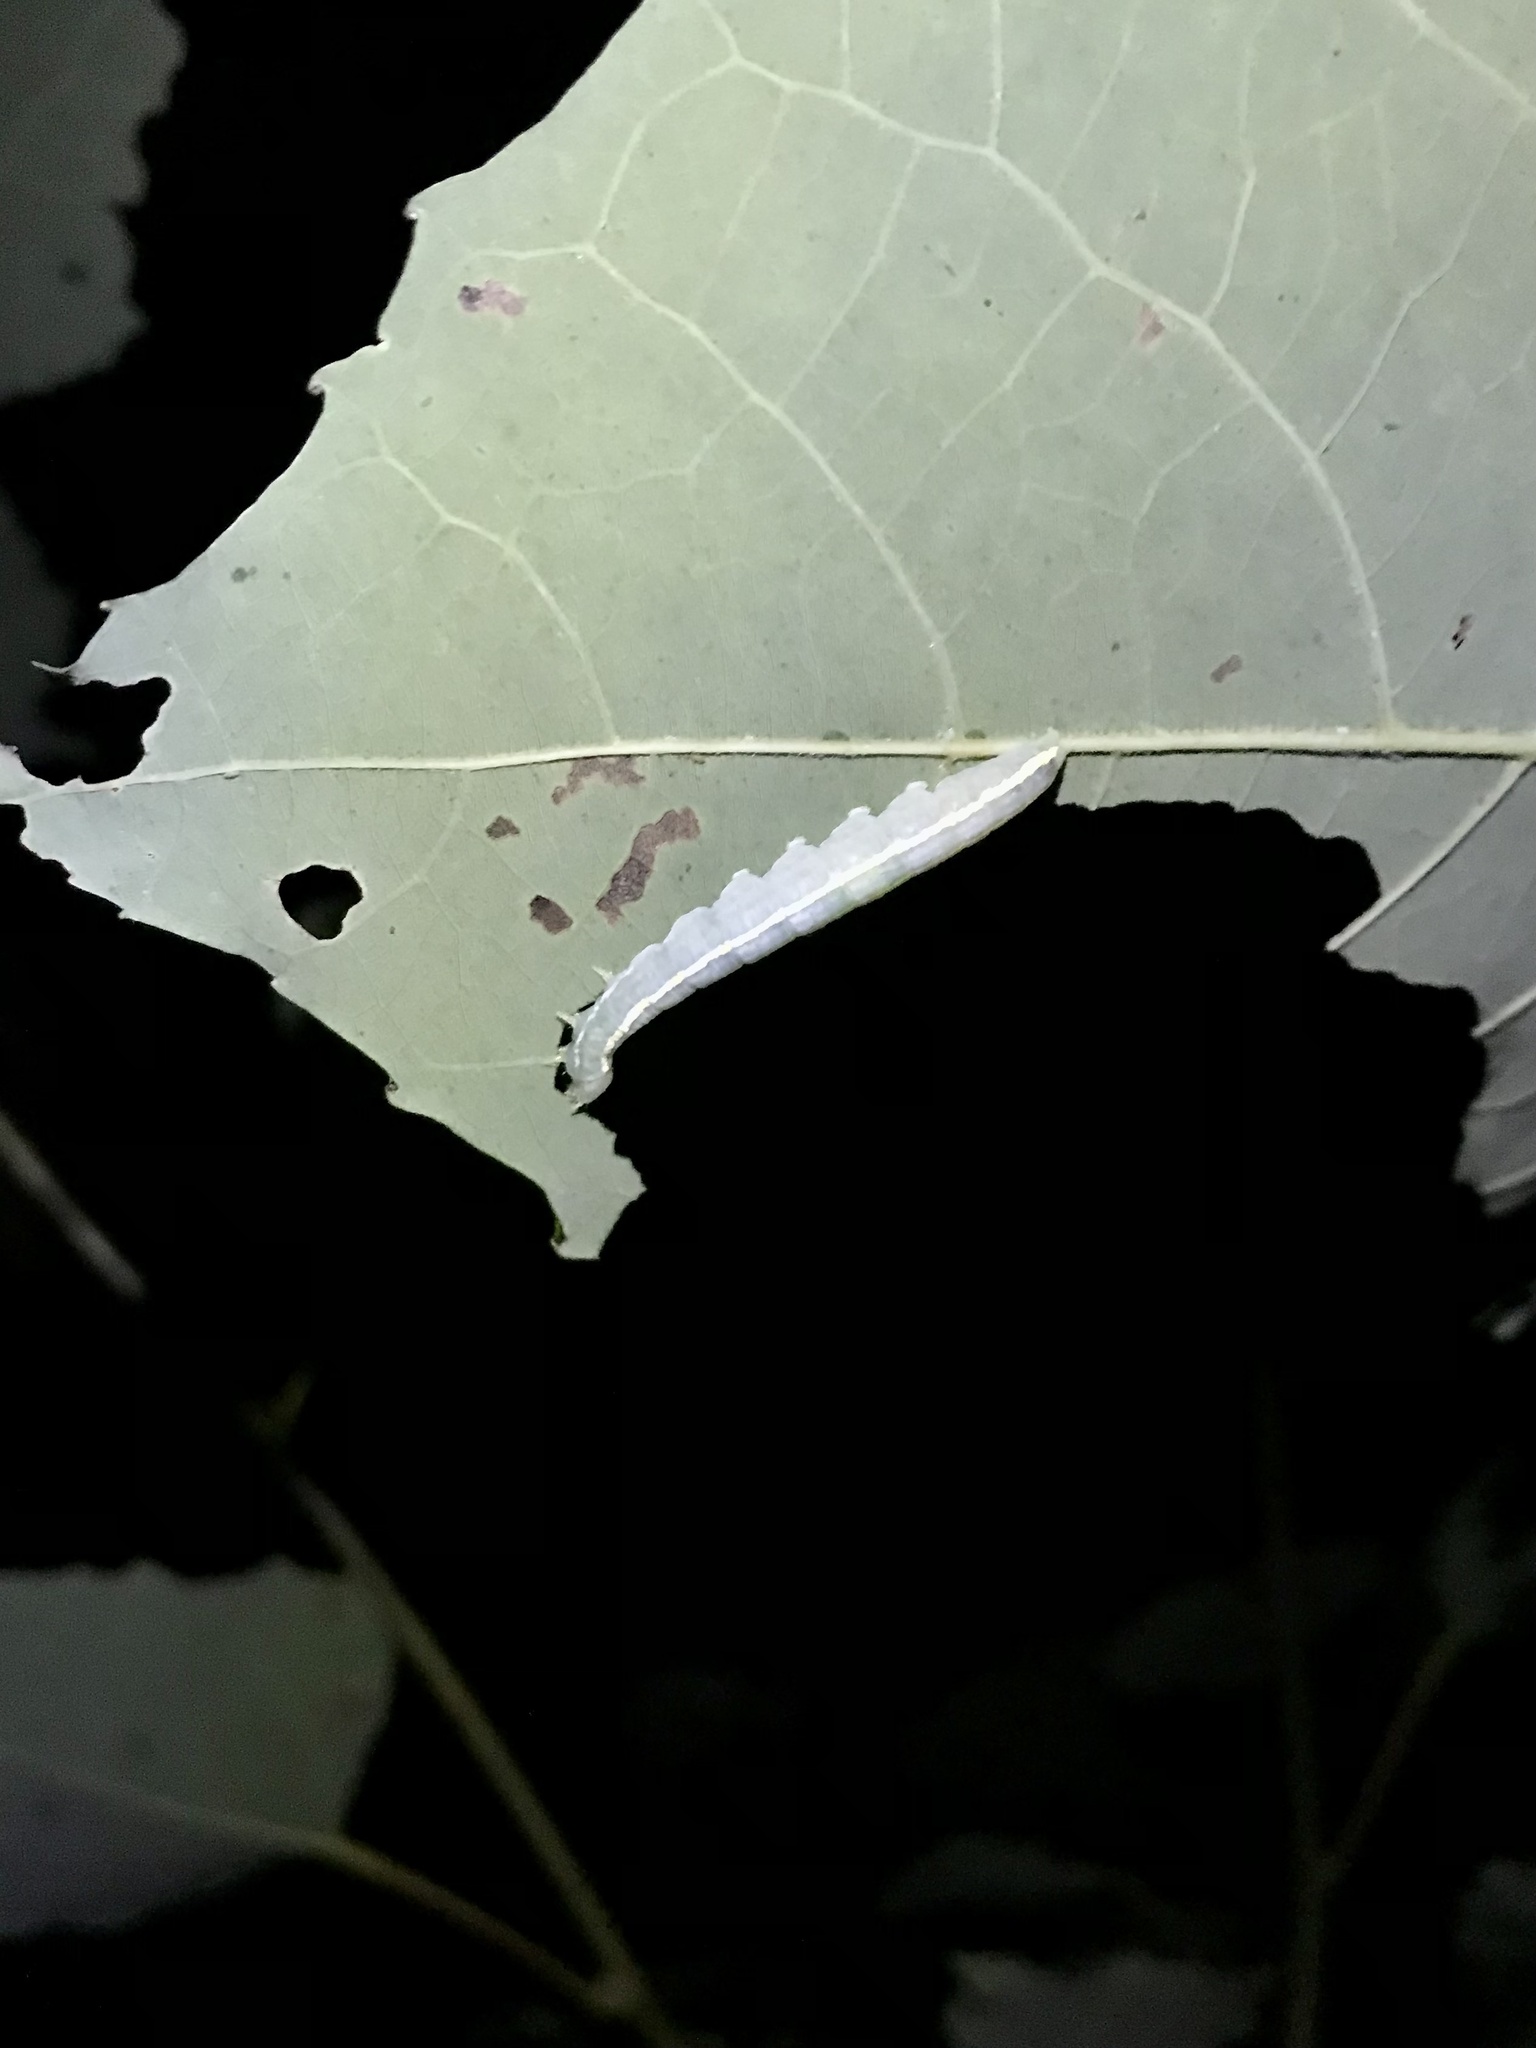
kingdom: Animalia
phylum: Arthropoda
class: Insecta
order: Lepidoptera
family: Notodontidae
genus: Gluphisia
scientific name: Gluphisia septentrionis
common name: Common gluphisia
